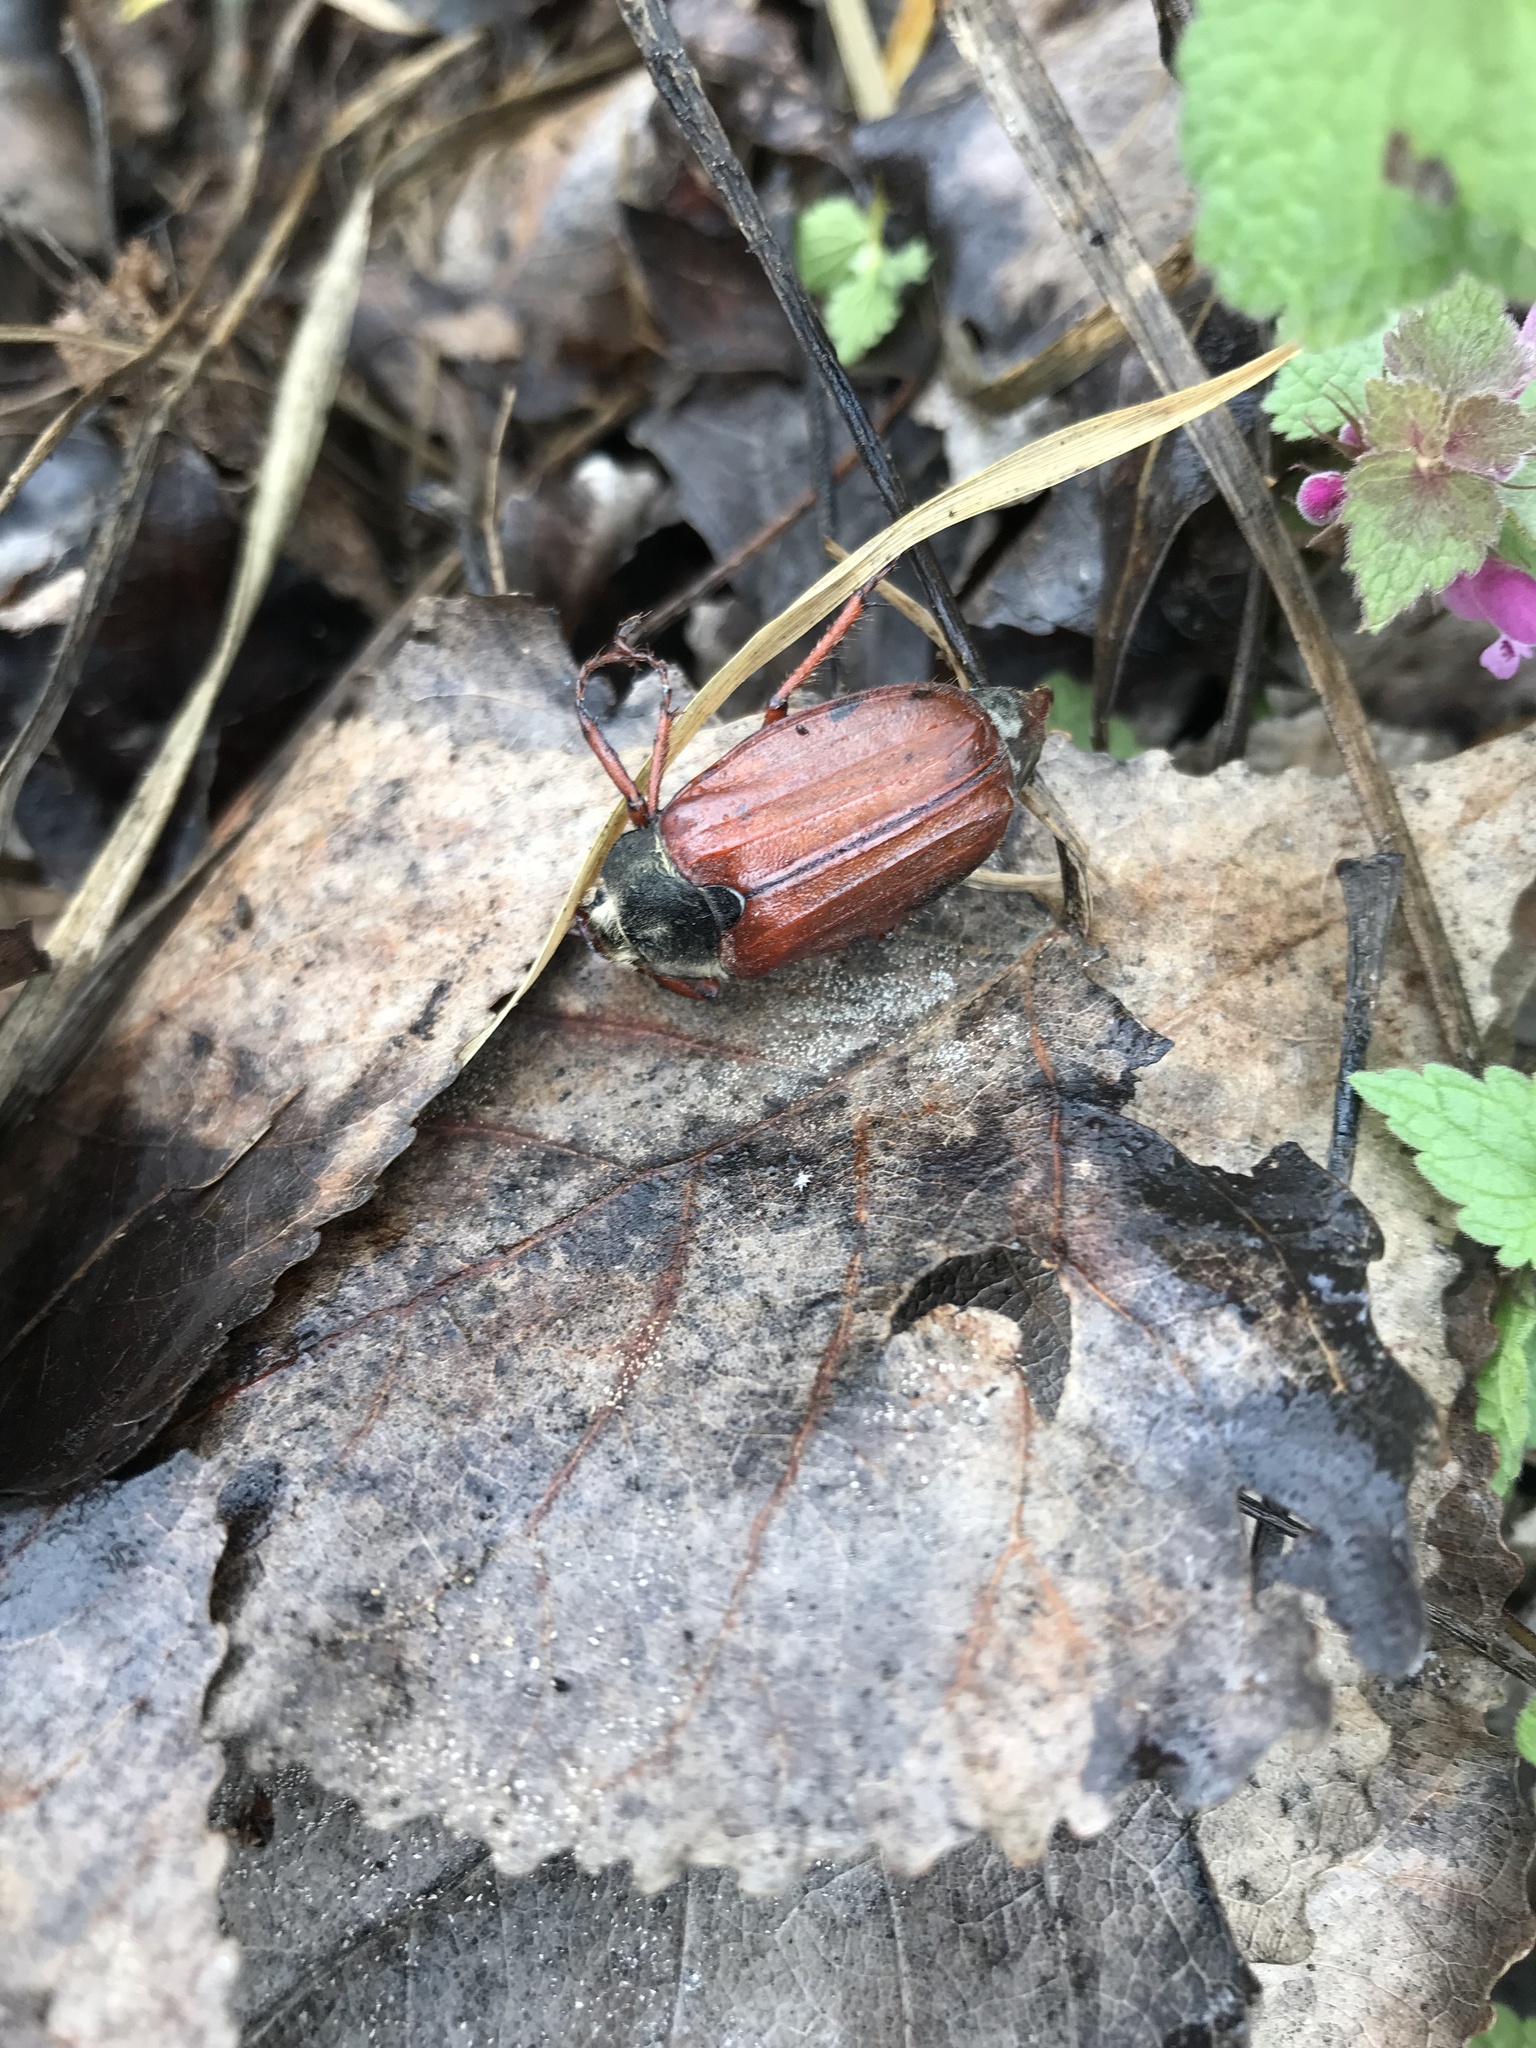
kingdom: Animalia
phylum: Arthropoda
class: Insecta
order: Coleoptera
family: Scarabaeidae
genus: Melolontha
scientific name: Melolontha melolontha
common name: Cockchafer maybeetle
